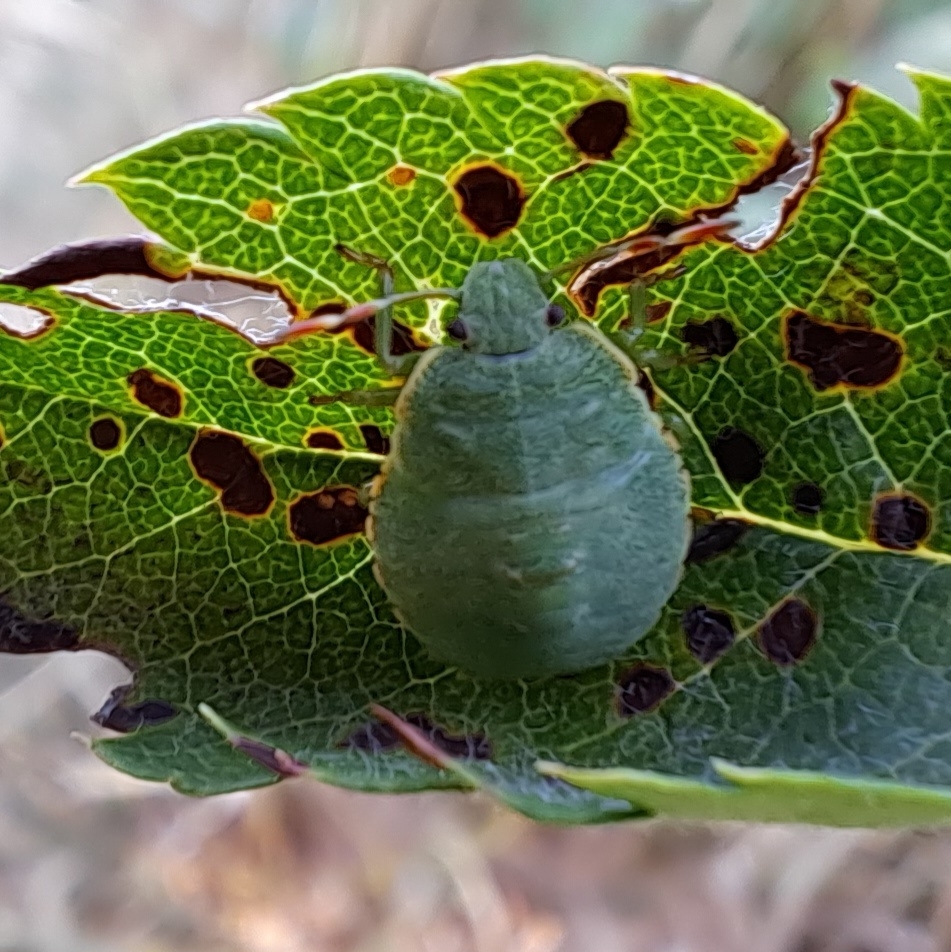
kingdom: Animalia
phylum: Arthropoda
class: Insecta
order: Hemiptera
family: Pentatomidae
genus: Palomena
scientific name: Palomena prasina
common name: Green shieldbug
